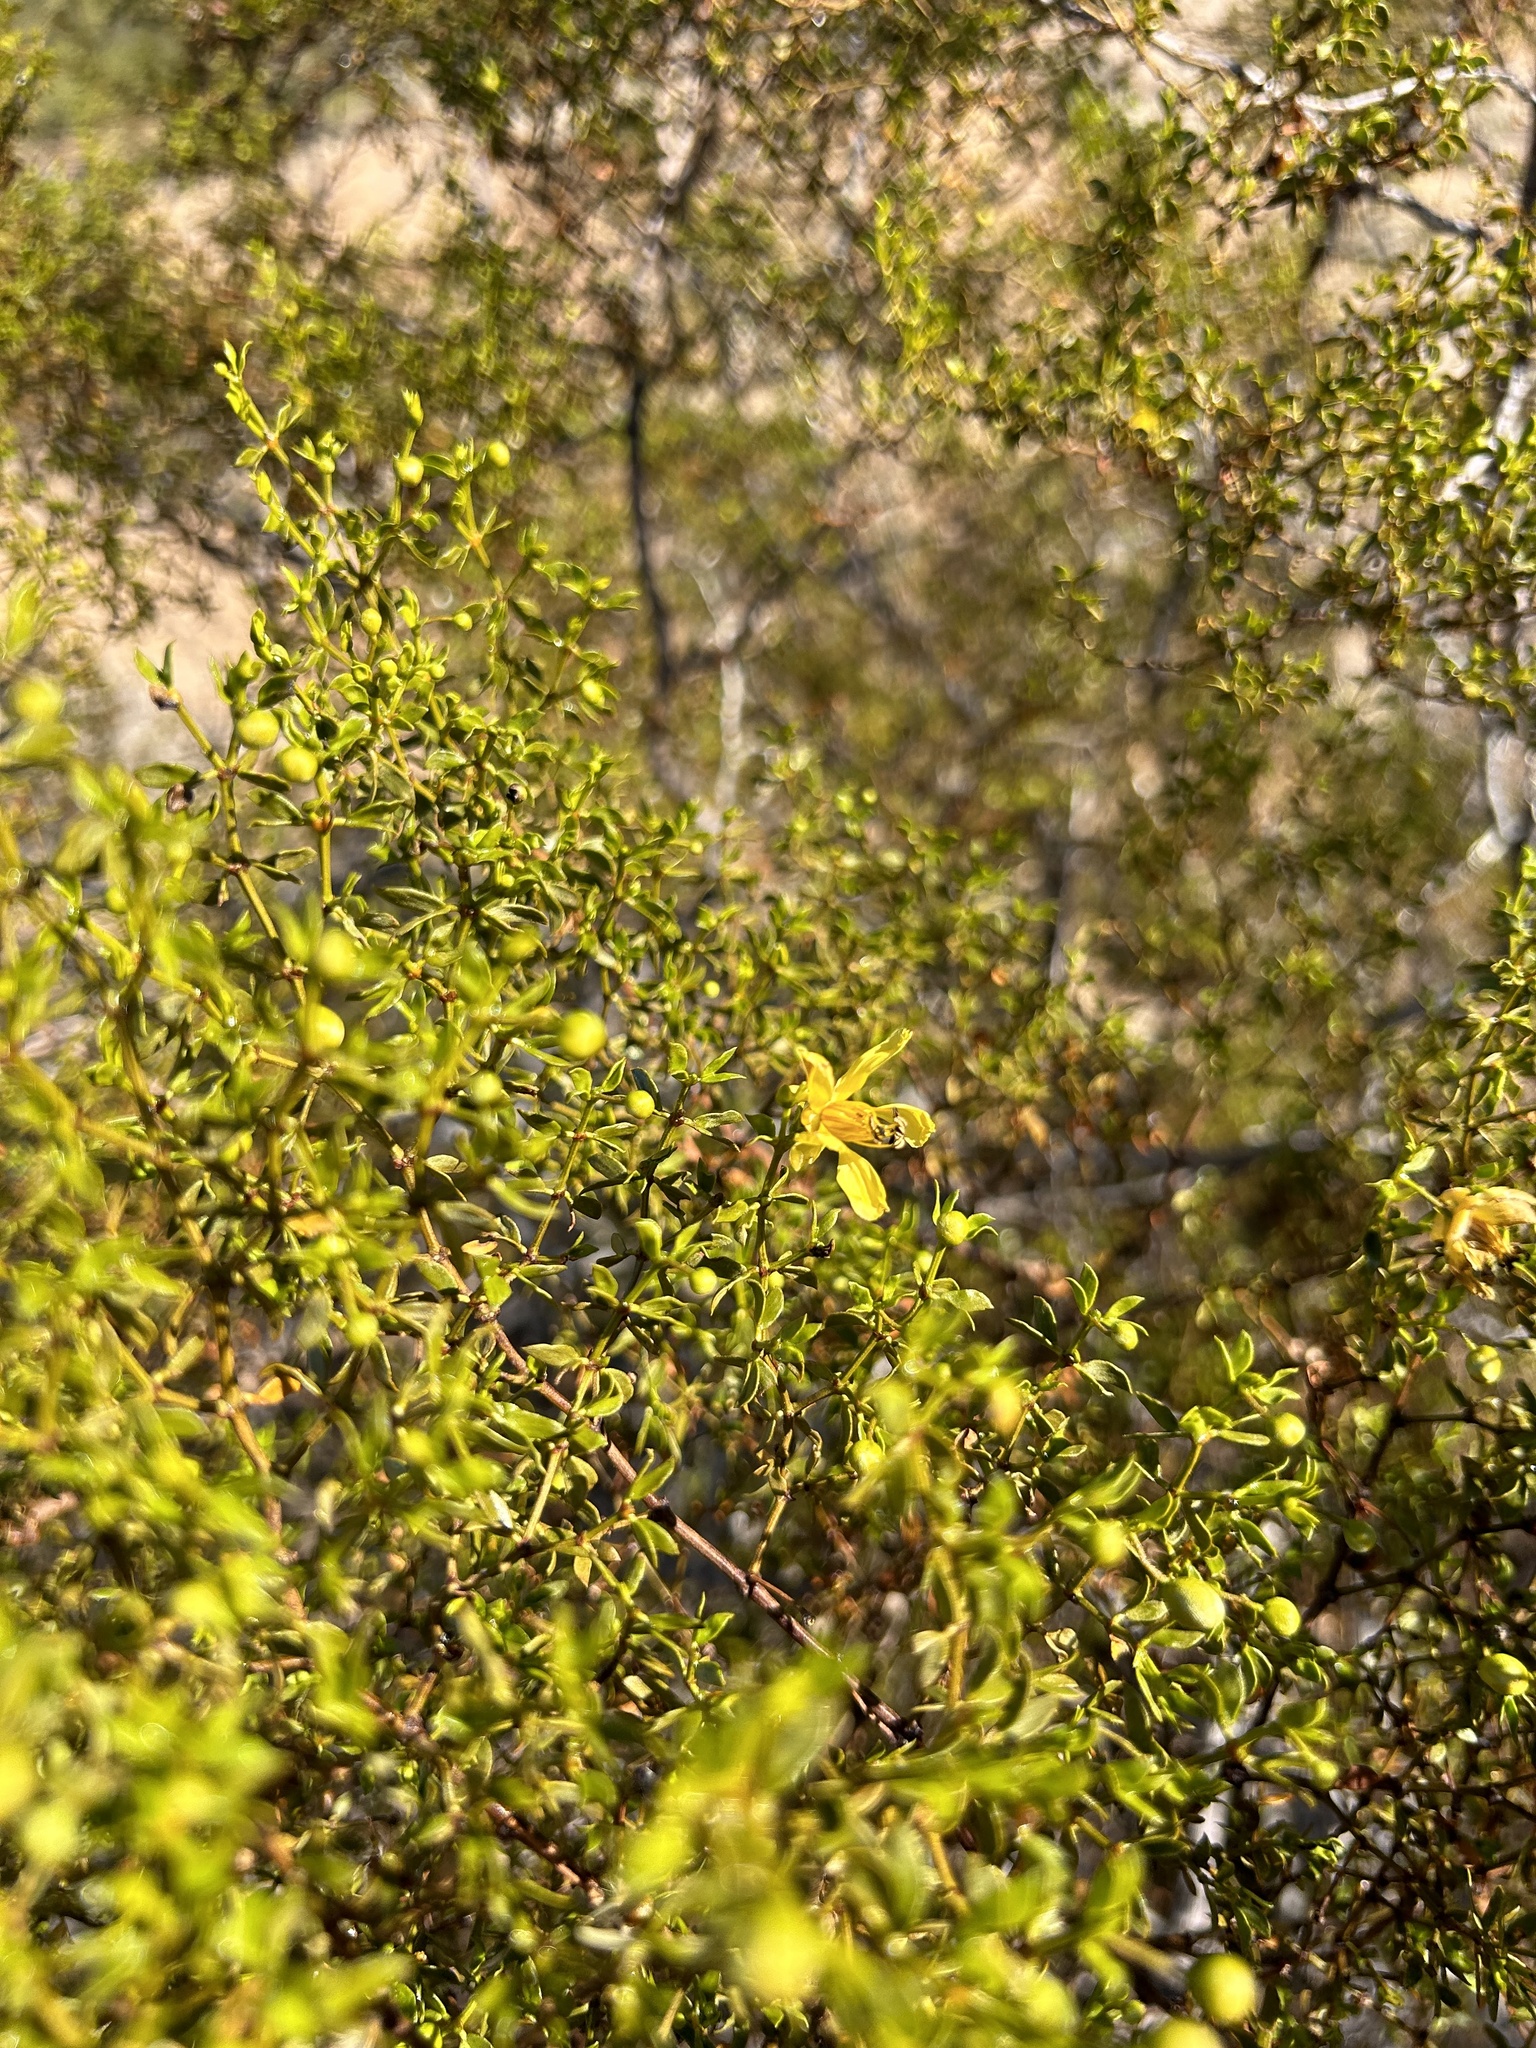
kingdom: Plantae
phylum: Tracheophyta
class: Magnoliopsida
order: Zygophyllales
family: Zygophyllaceae
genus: Larrea
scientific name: Larrea tridentata
